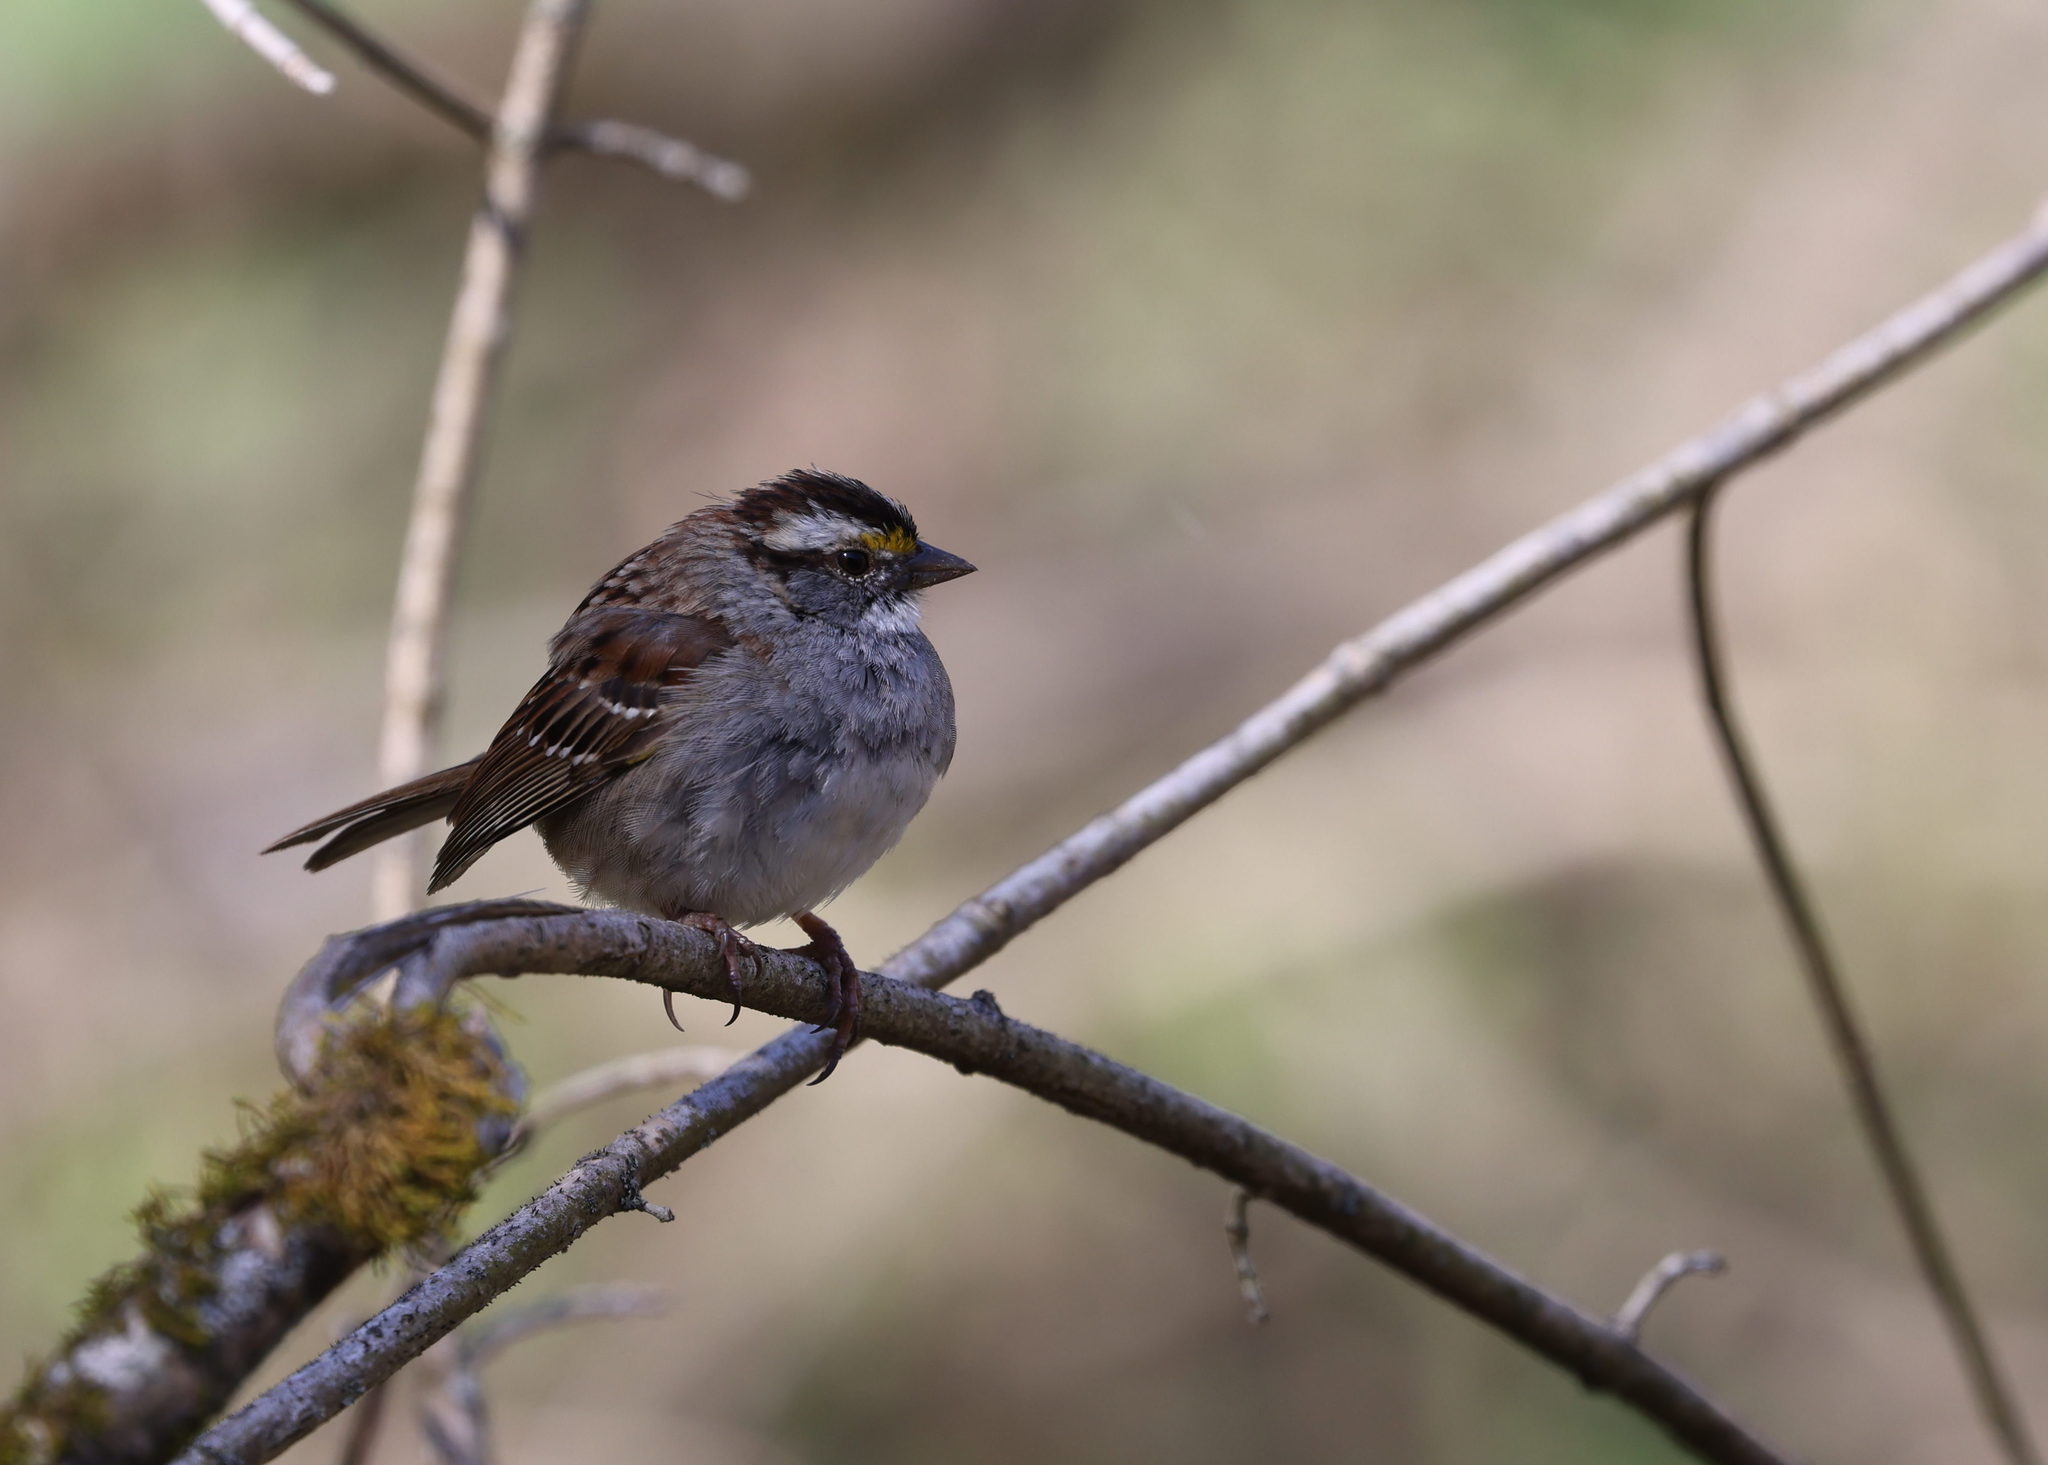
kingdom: Animalia
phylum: Chordata
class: Aves
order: Passeriformes
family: Passerellidae
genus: Zonotrichia
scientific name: Zonotrichia albicollis
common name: White-throated sparrow
